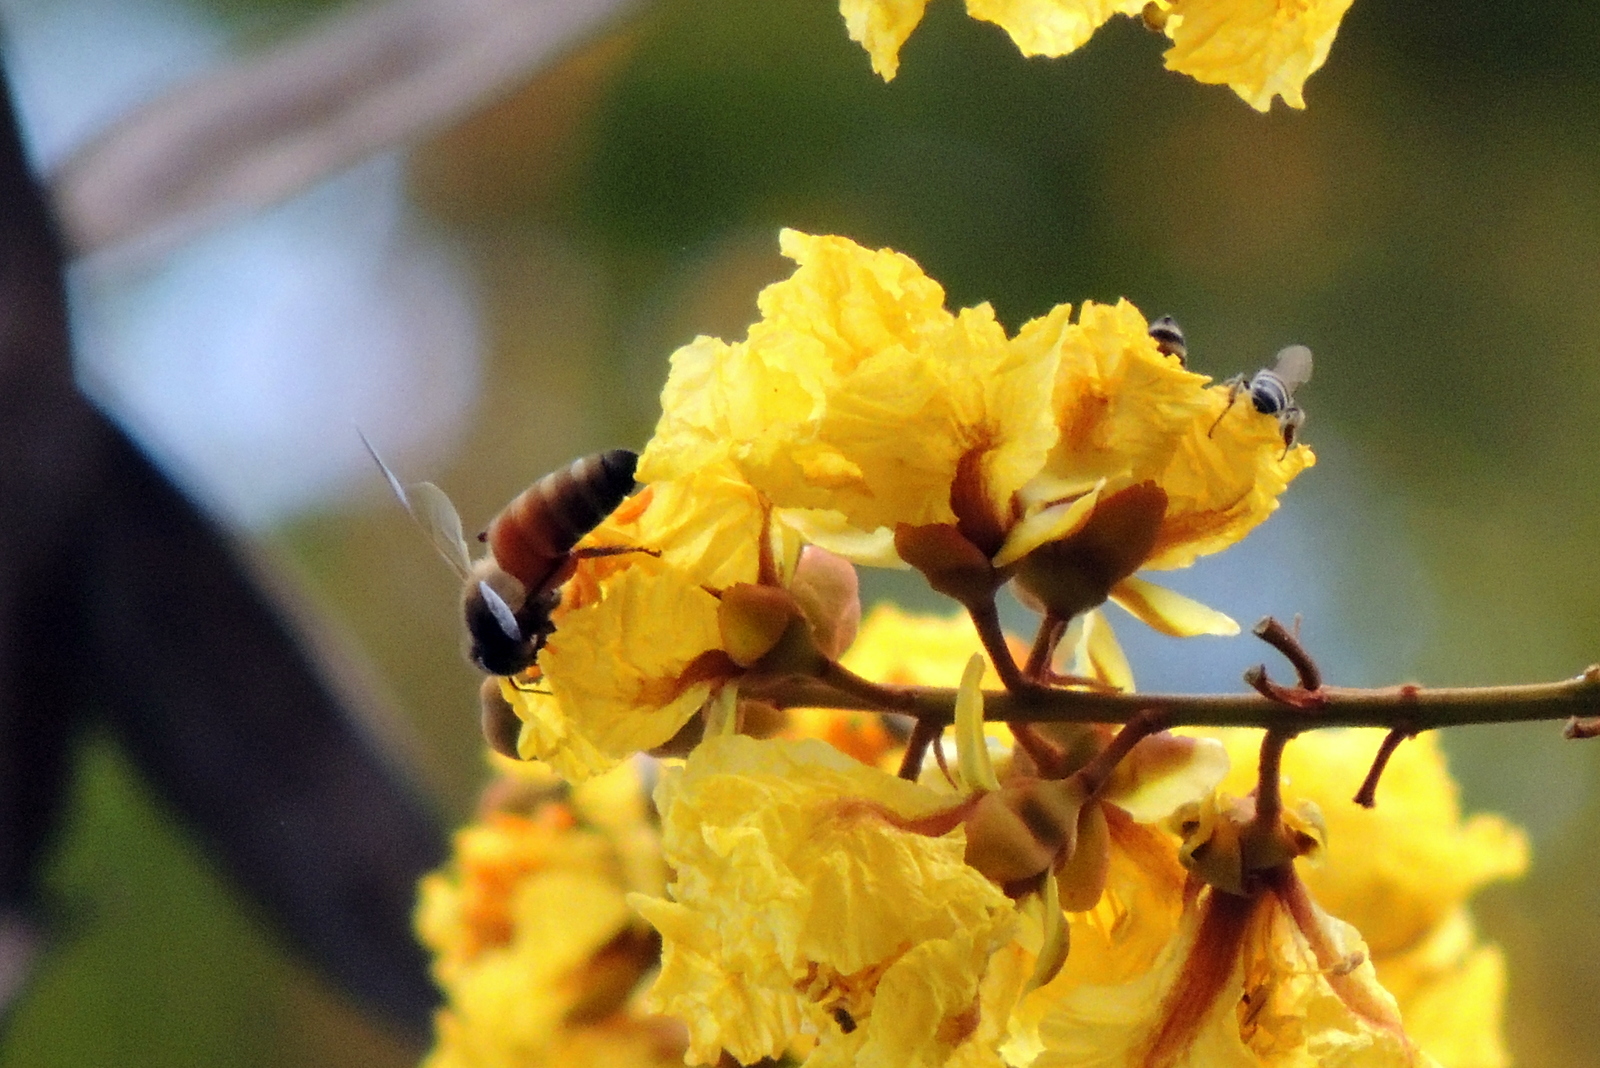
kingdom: Plantae
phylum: Tracheophyta
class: Magnoliopsida
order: Fabales
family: Fabaceae
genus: Peltophorum
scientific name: Peltophorum pterocarpum
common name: Yellow flame
